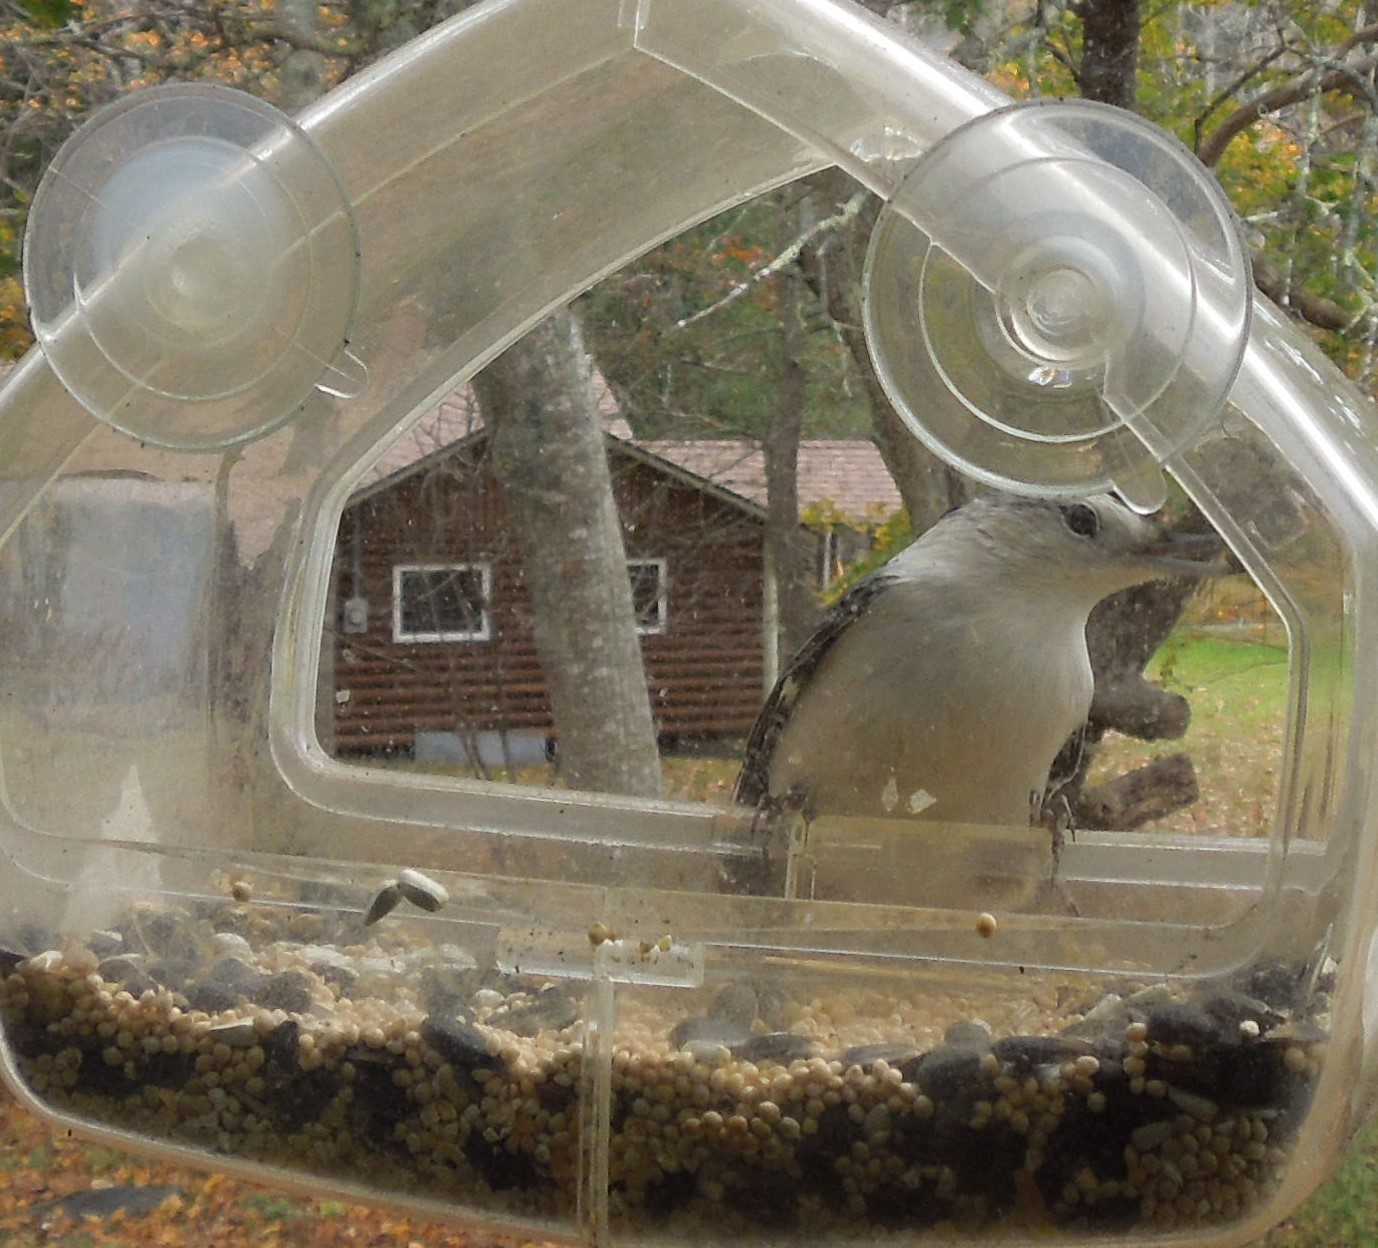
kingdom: Animalia
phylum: Chordata
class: Aves
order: Passeriformes
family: Sittidae
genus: Sitta
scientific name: Sitta carolinensis
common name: White-breasted nuthatch
